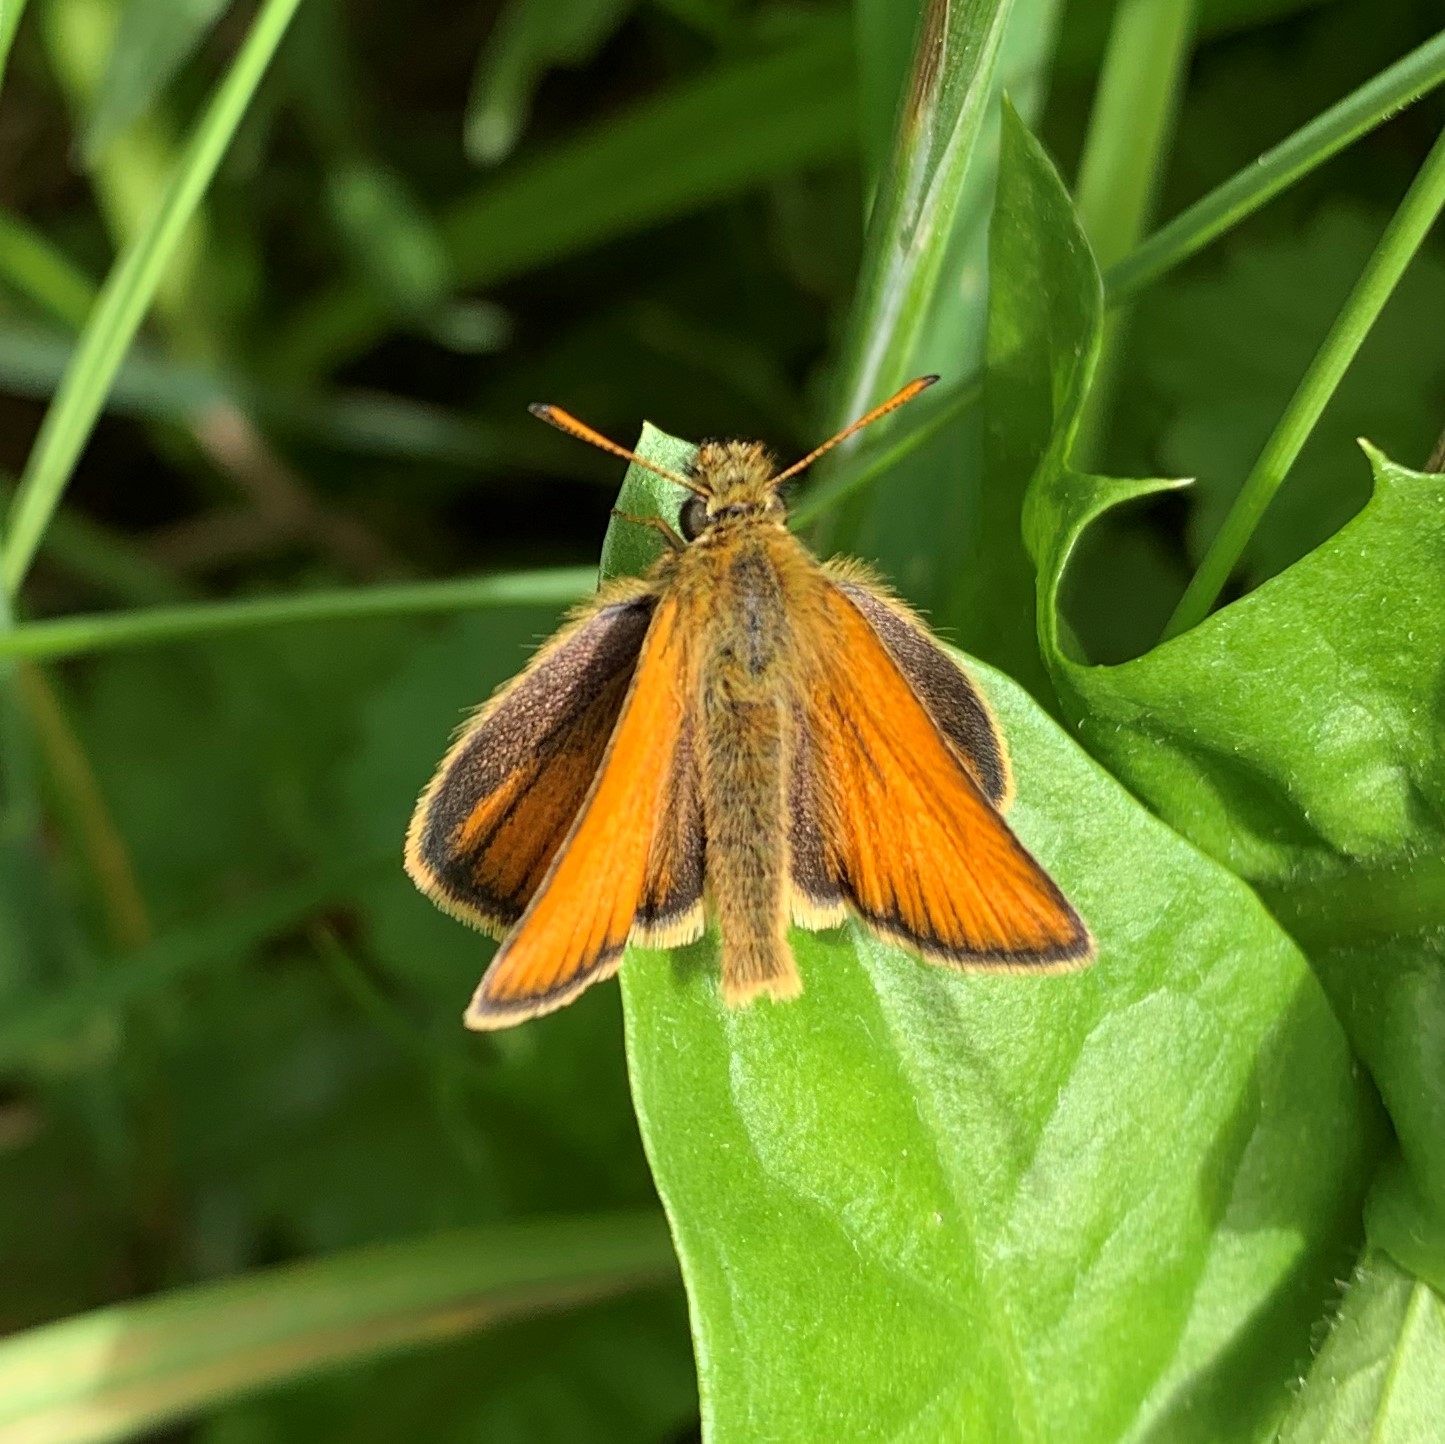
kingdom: Animalia
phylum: Arthropoda
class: Insecta
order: Lepidoptera
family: Hesperiidae
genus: Thymelicus
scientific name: Thymelicus lineola
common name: Essex skipper
